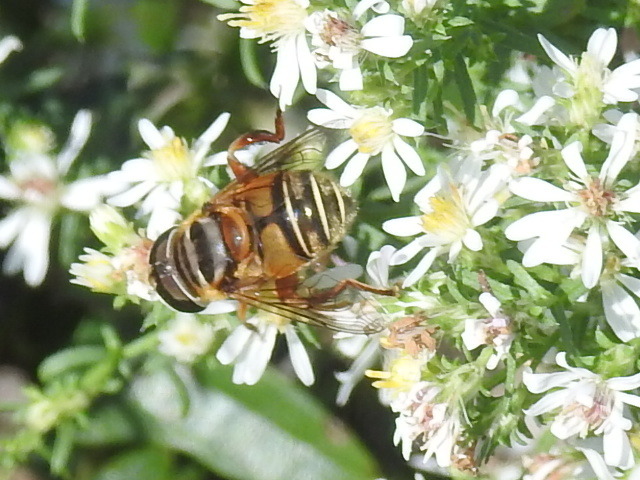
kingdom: Animalia
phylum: Arthropoda
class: Insecta
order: Diptera
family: Syrphidae
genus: Palpada
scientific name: Palpada vinetorum
